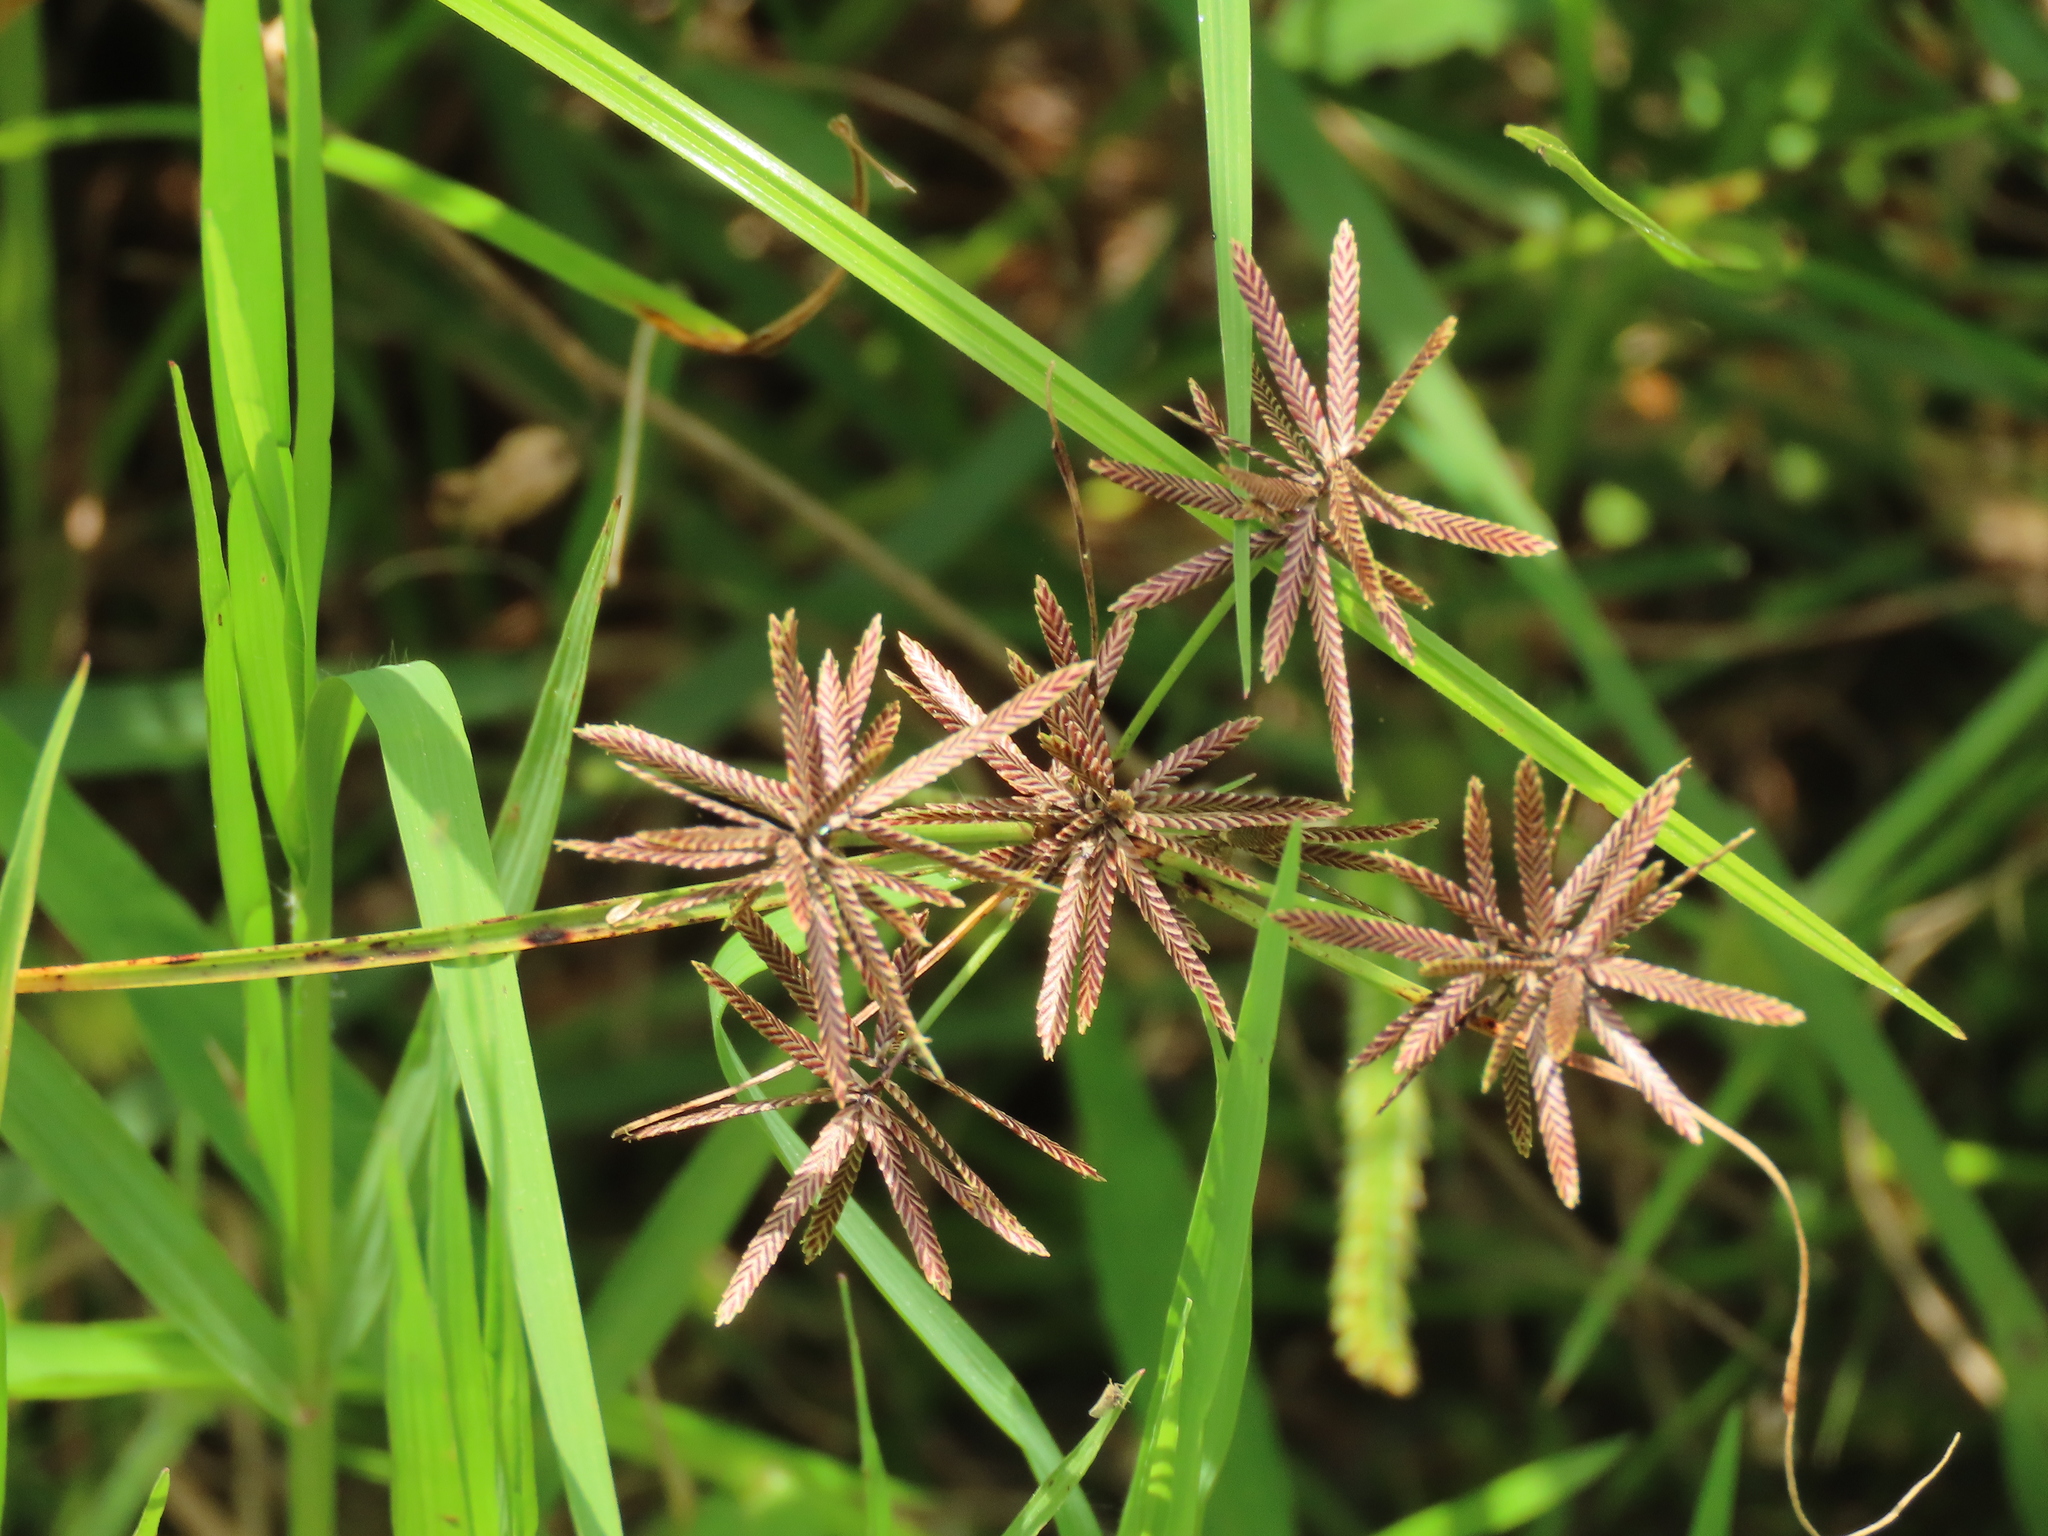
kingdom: Plantae
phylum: Tracheophyta
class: Liliopsida
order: Poales
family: Cyperaceae
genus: Cyperus
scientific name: Cyperus flavidus
